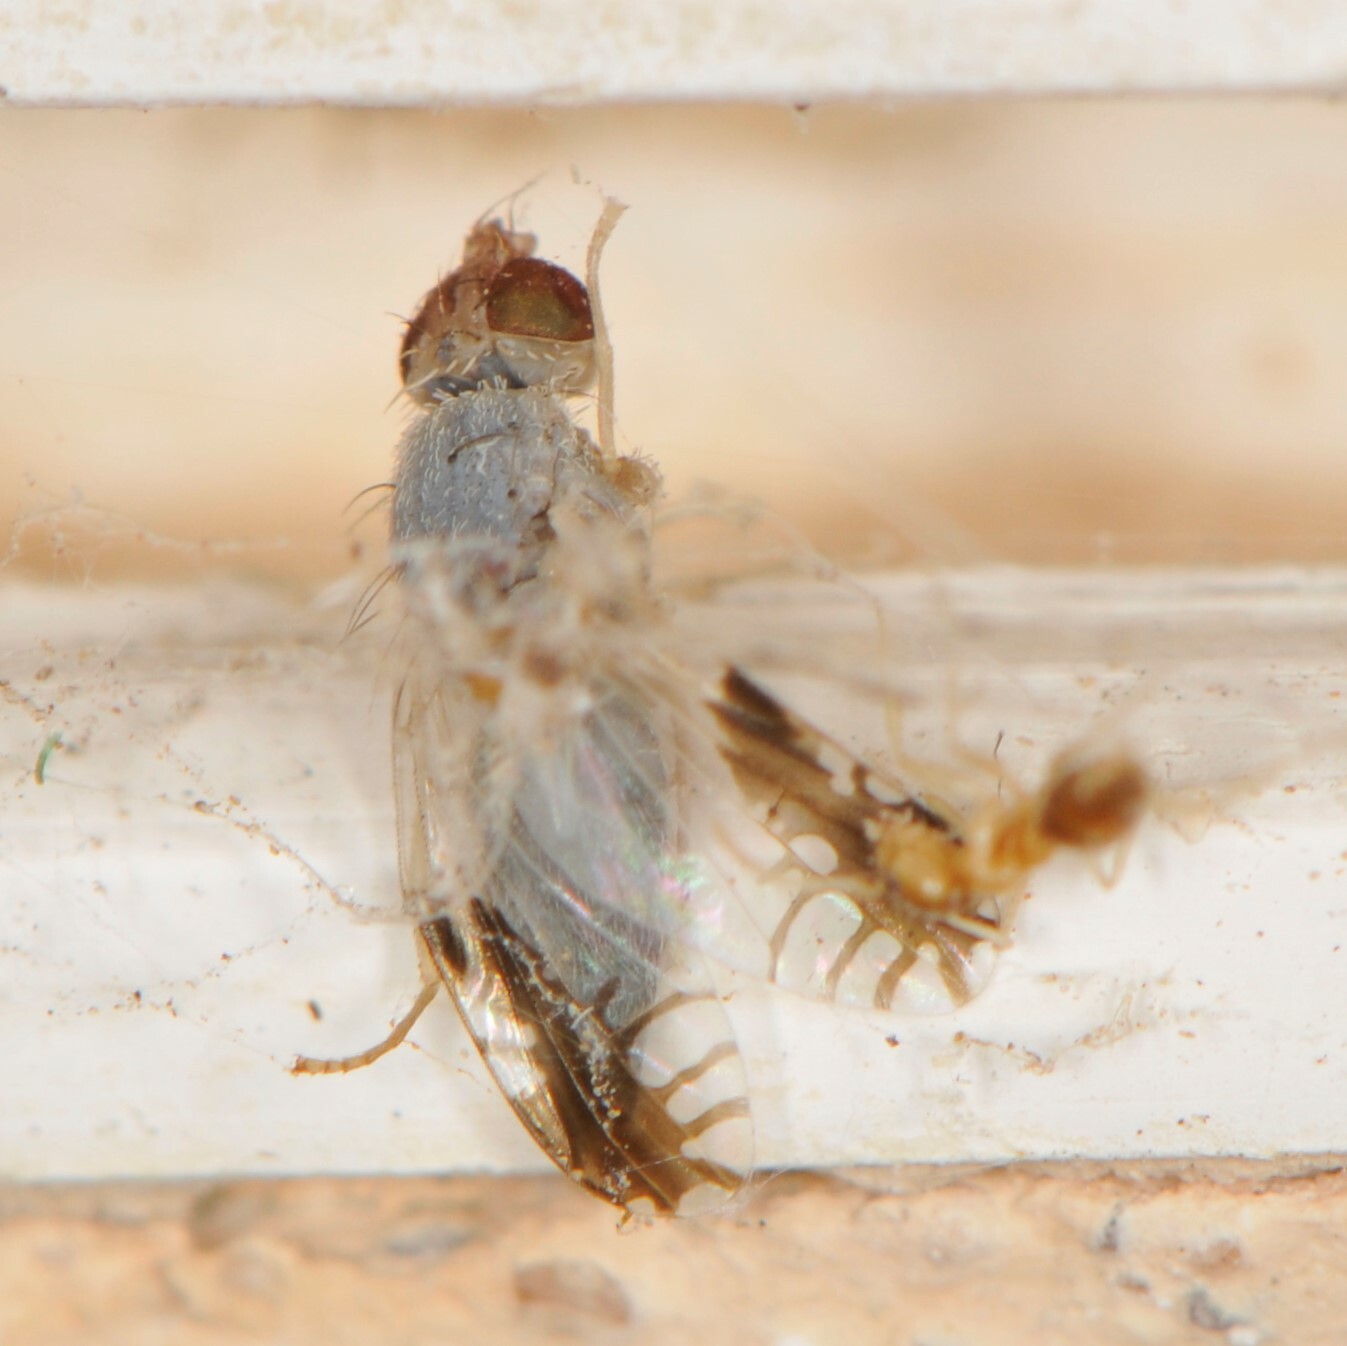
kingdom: Animalia
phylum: Arthropoda
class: Insecta
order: Diptera
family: Tephritidae
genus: Trupanea
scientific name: Trupanea bisetosa
